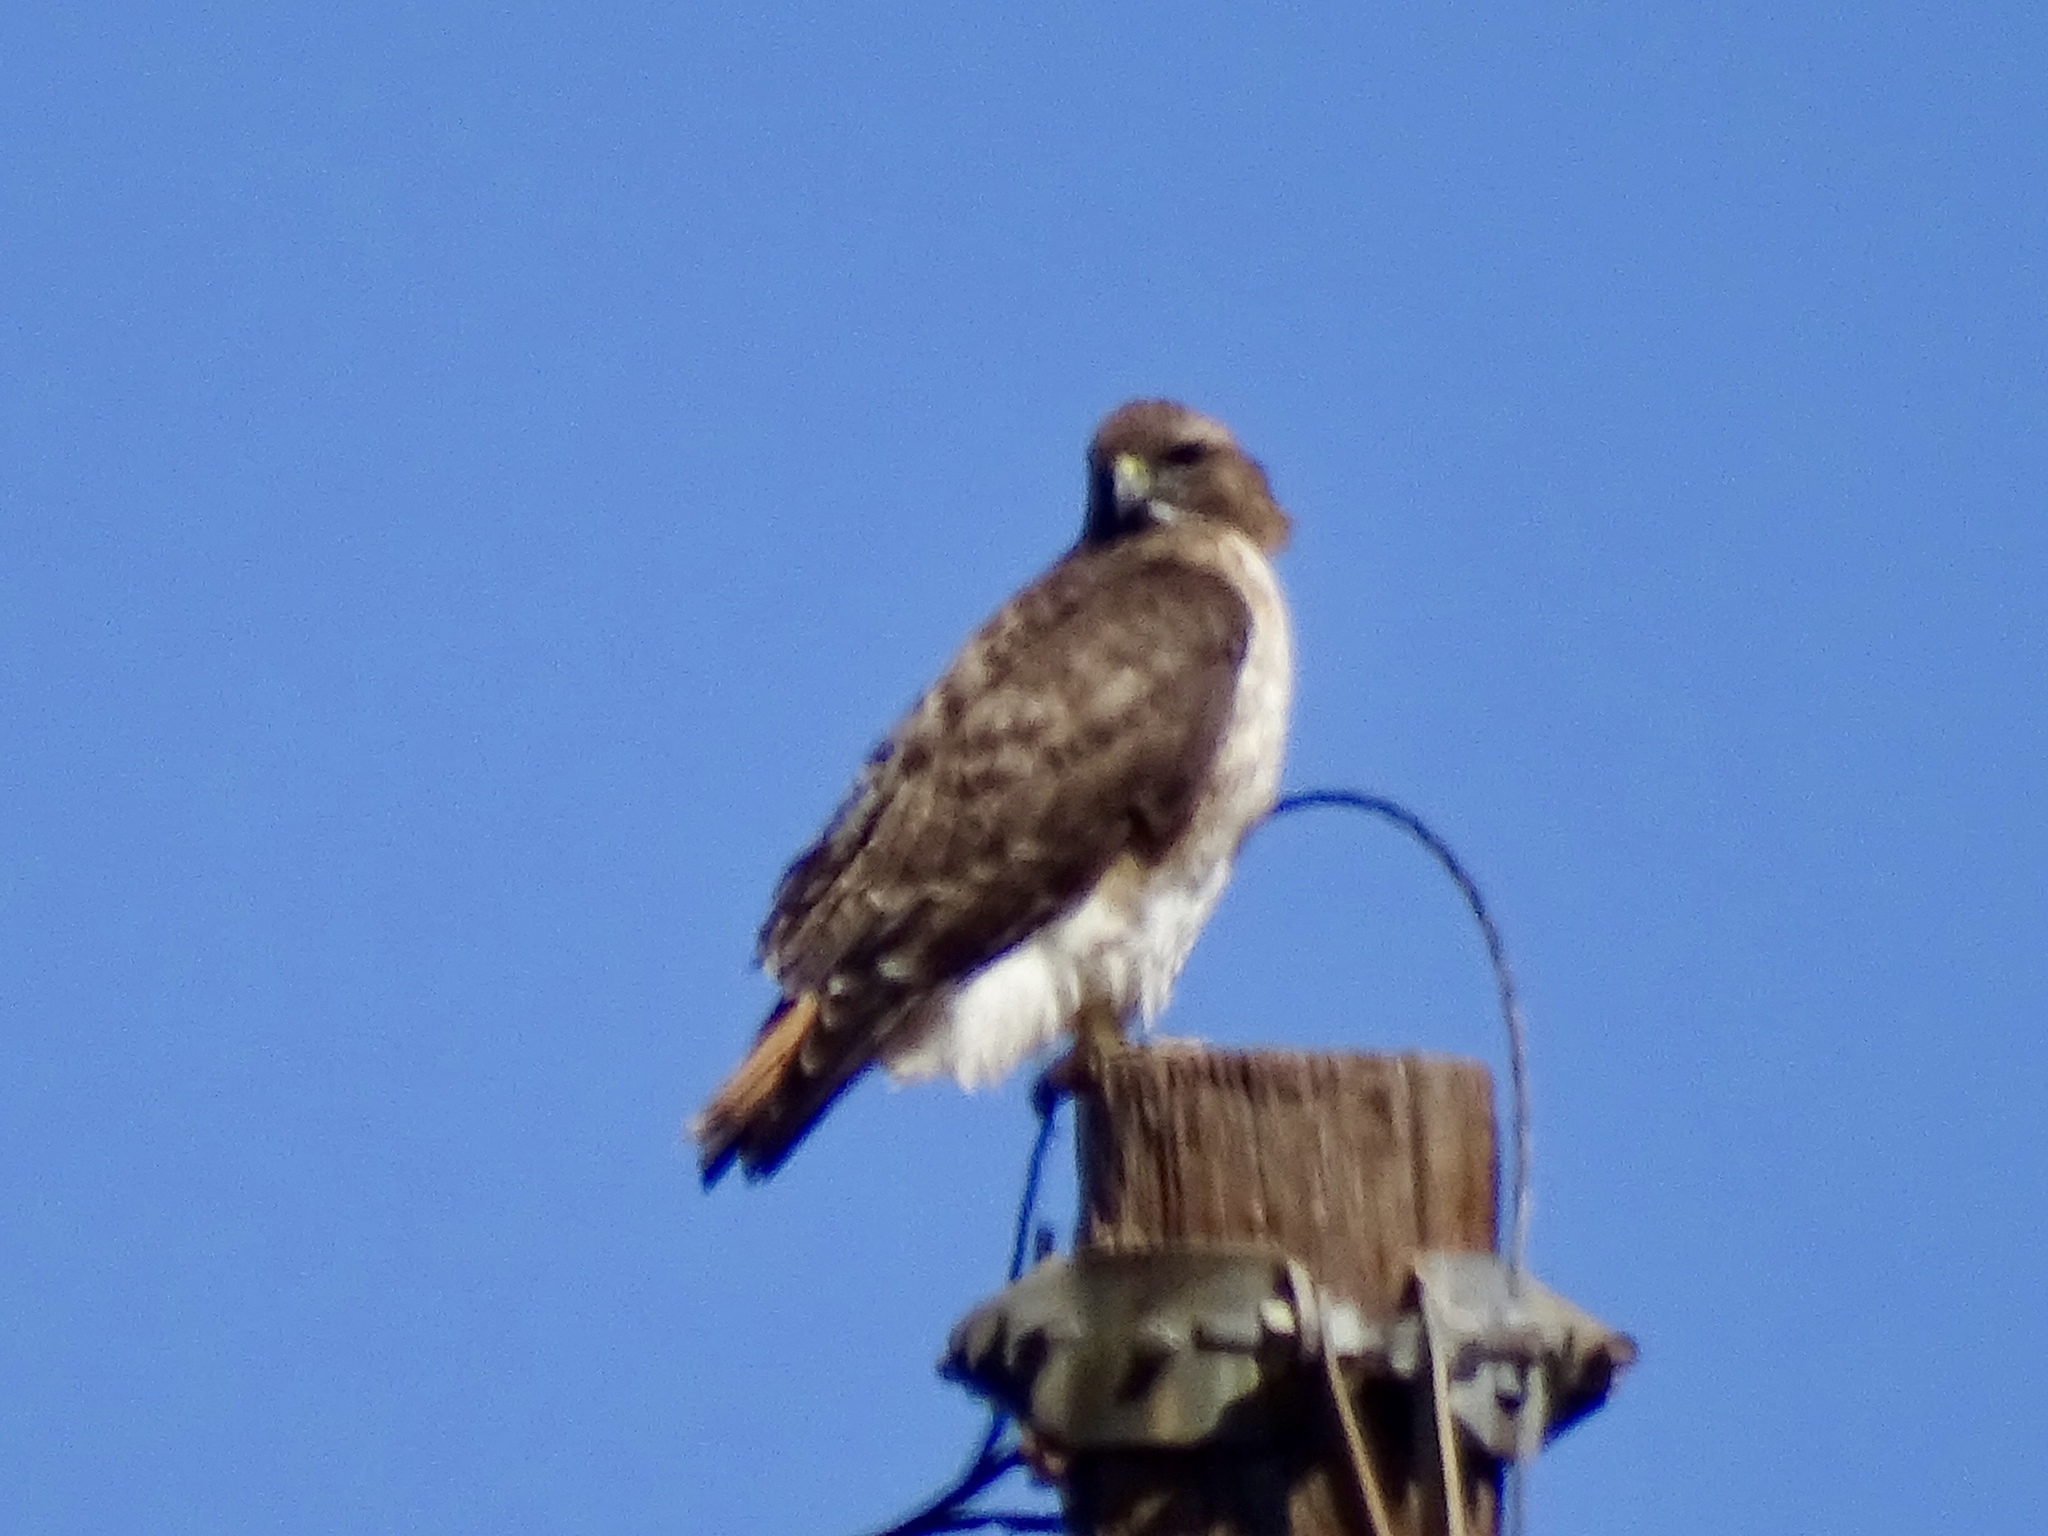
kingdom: Animalia
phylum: Chordata
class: Aves
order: Accipitriformes
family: Accipitridae
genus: Buteo
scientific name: Buteo jamaicensis
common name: Red-tailed hawk
